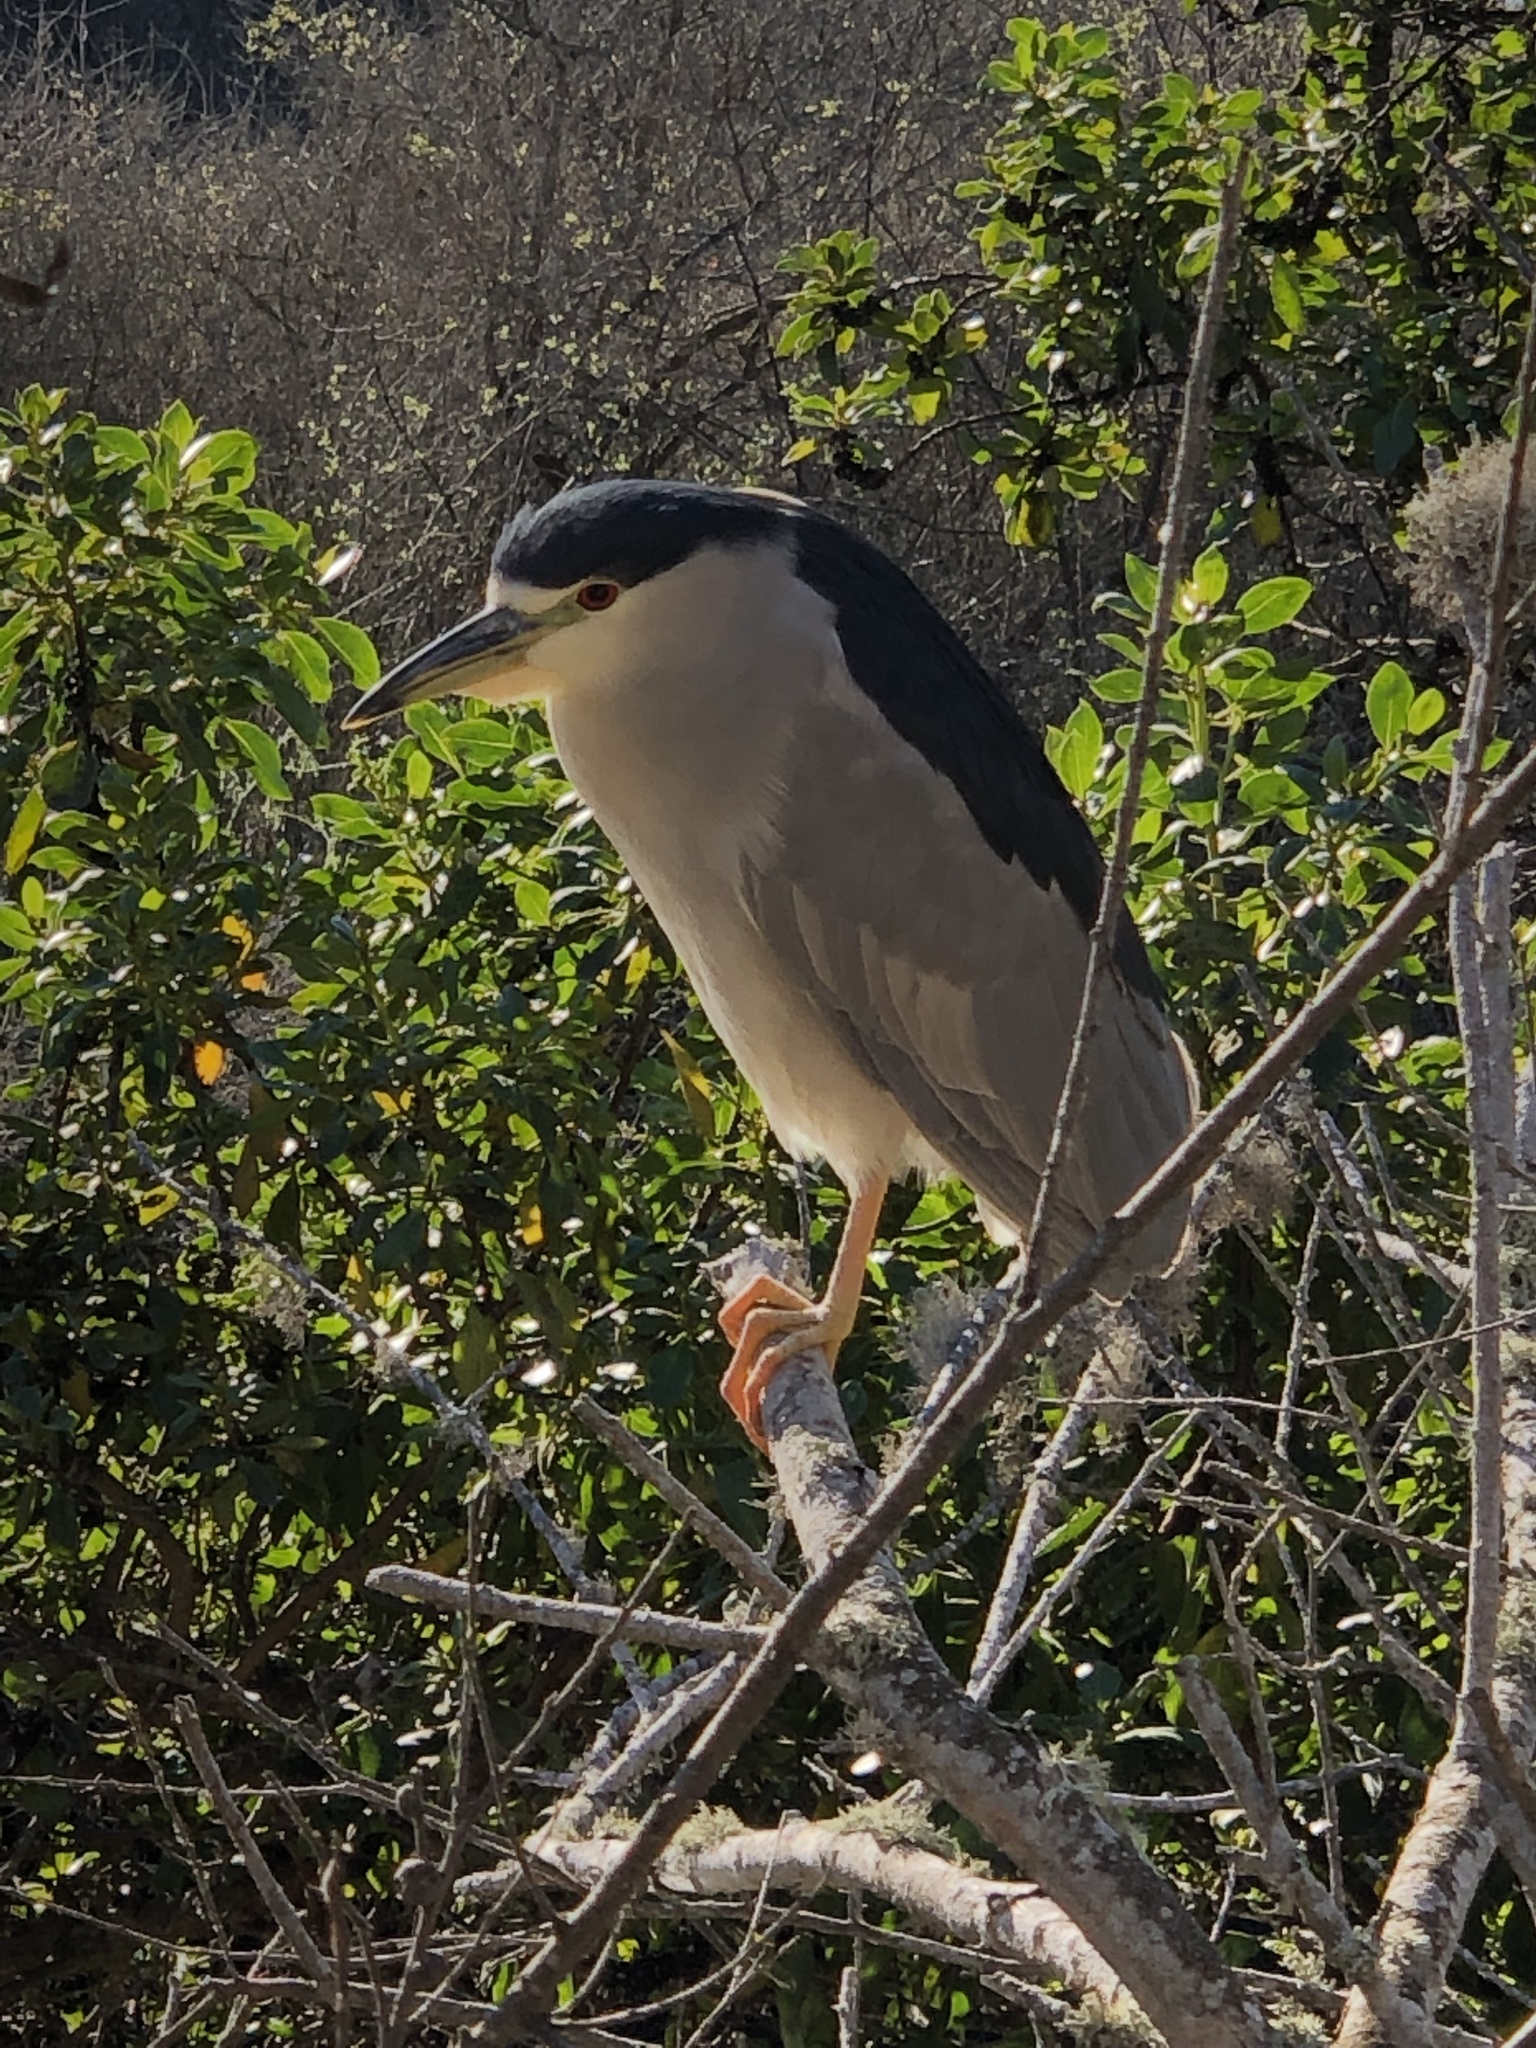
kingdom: Animalia
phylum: Chordata
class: Aves
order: Pelecaniformes
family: Ardeidae
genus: Nycticorax
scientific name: Nycticorax nycticorax
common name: Black-crowned night heron
